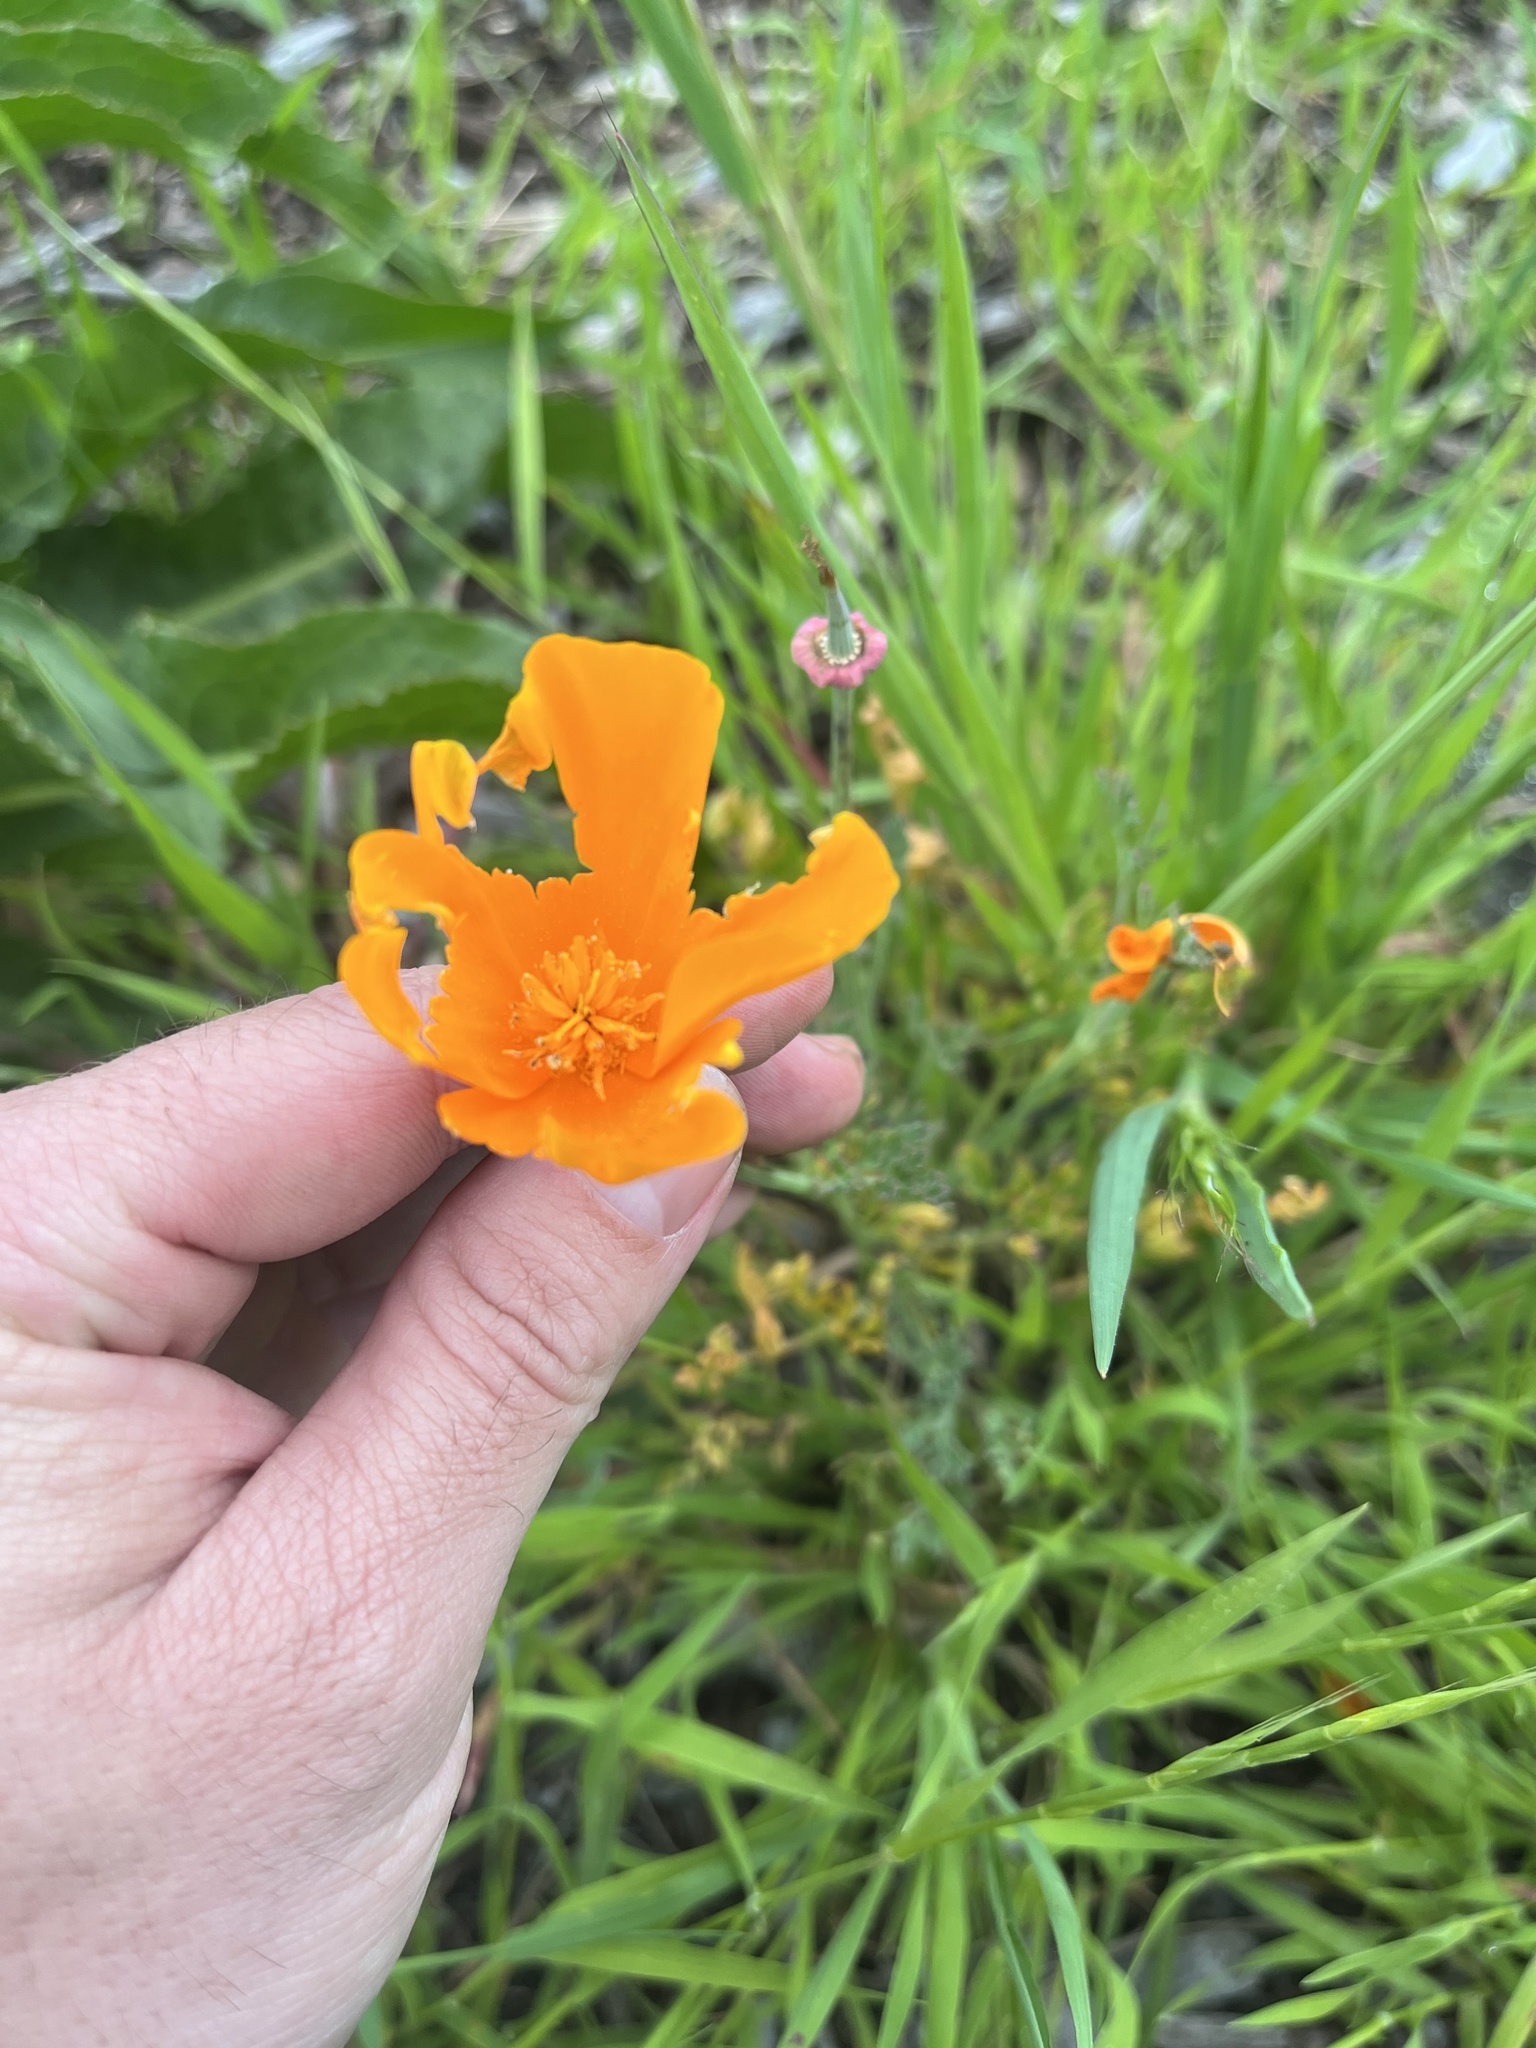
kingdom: Plantae
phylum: Tracheophyta
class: Magnoliopsida
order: Ranunculales
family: Papaveraceae
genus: Eschscholzia
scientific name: Eschscholzia californica
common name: California poppy
